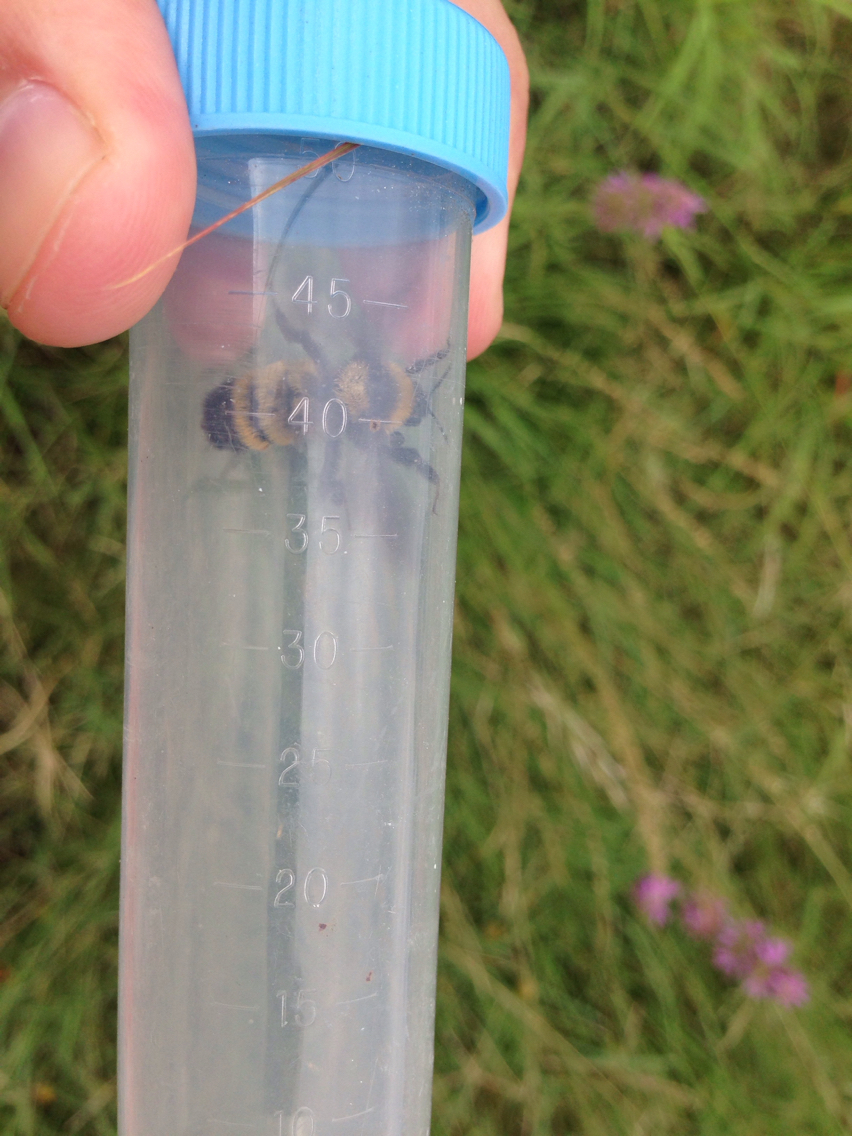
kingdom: Animalia
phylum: Arthropoda
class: Insecta
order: Hymenoptera
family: Apidae
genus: Bombus
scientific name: Bombus sonorus
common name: Sonoran bumble bee
